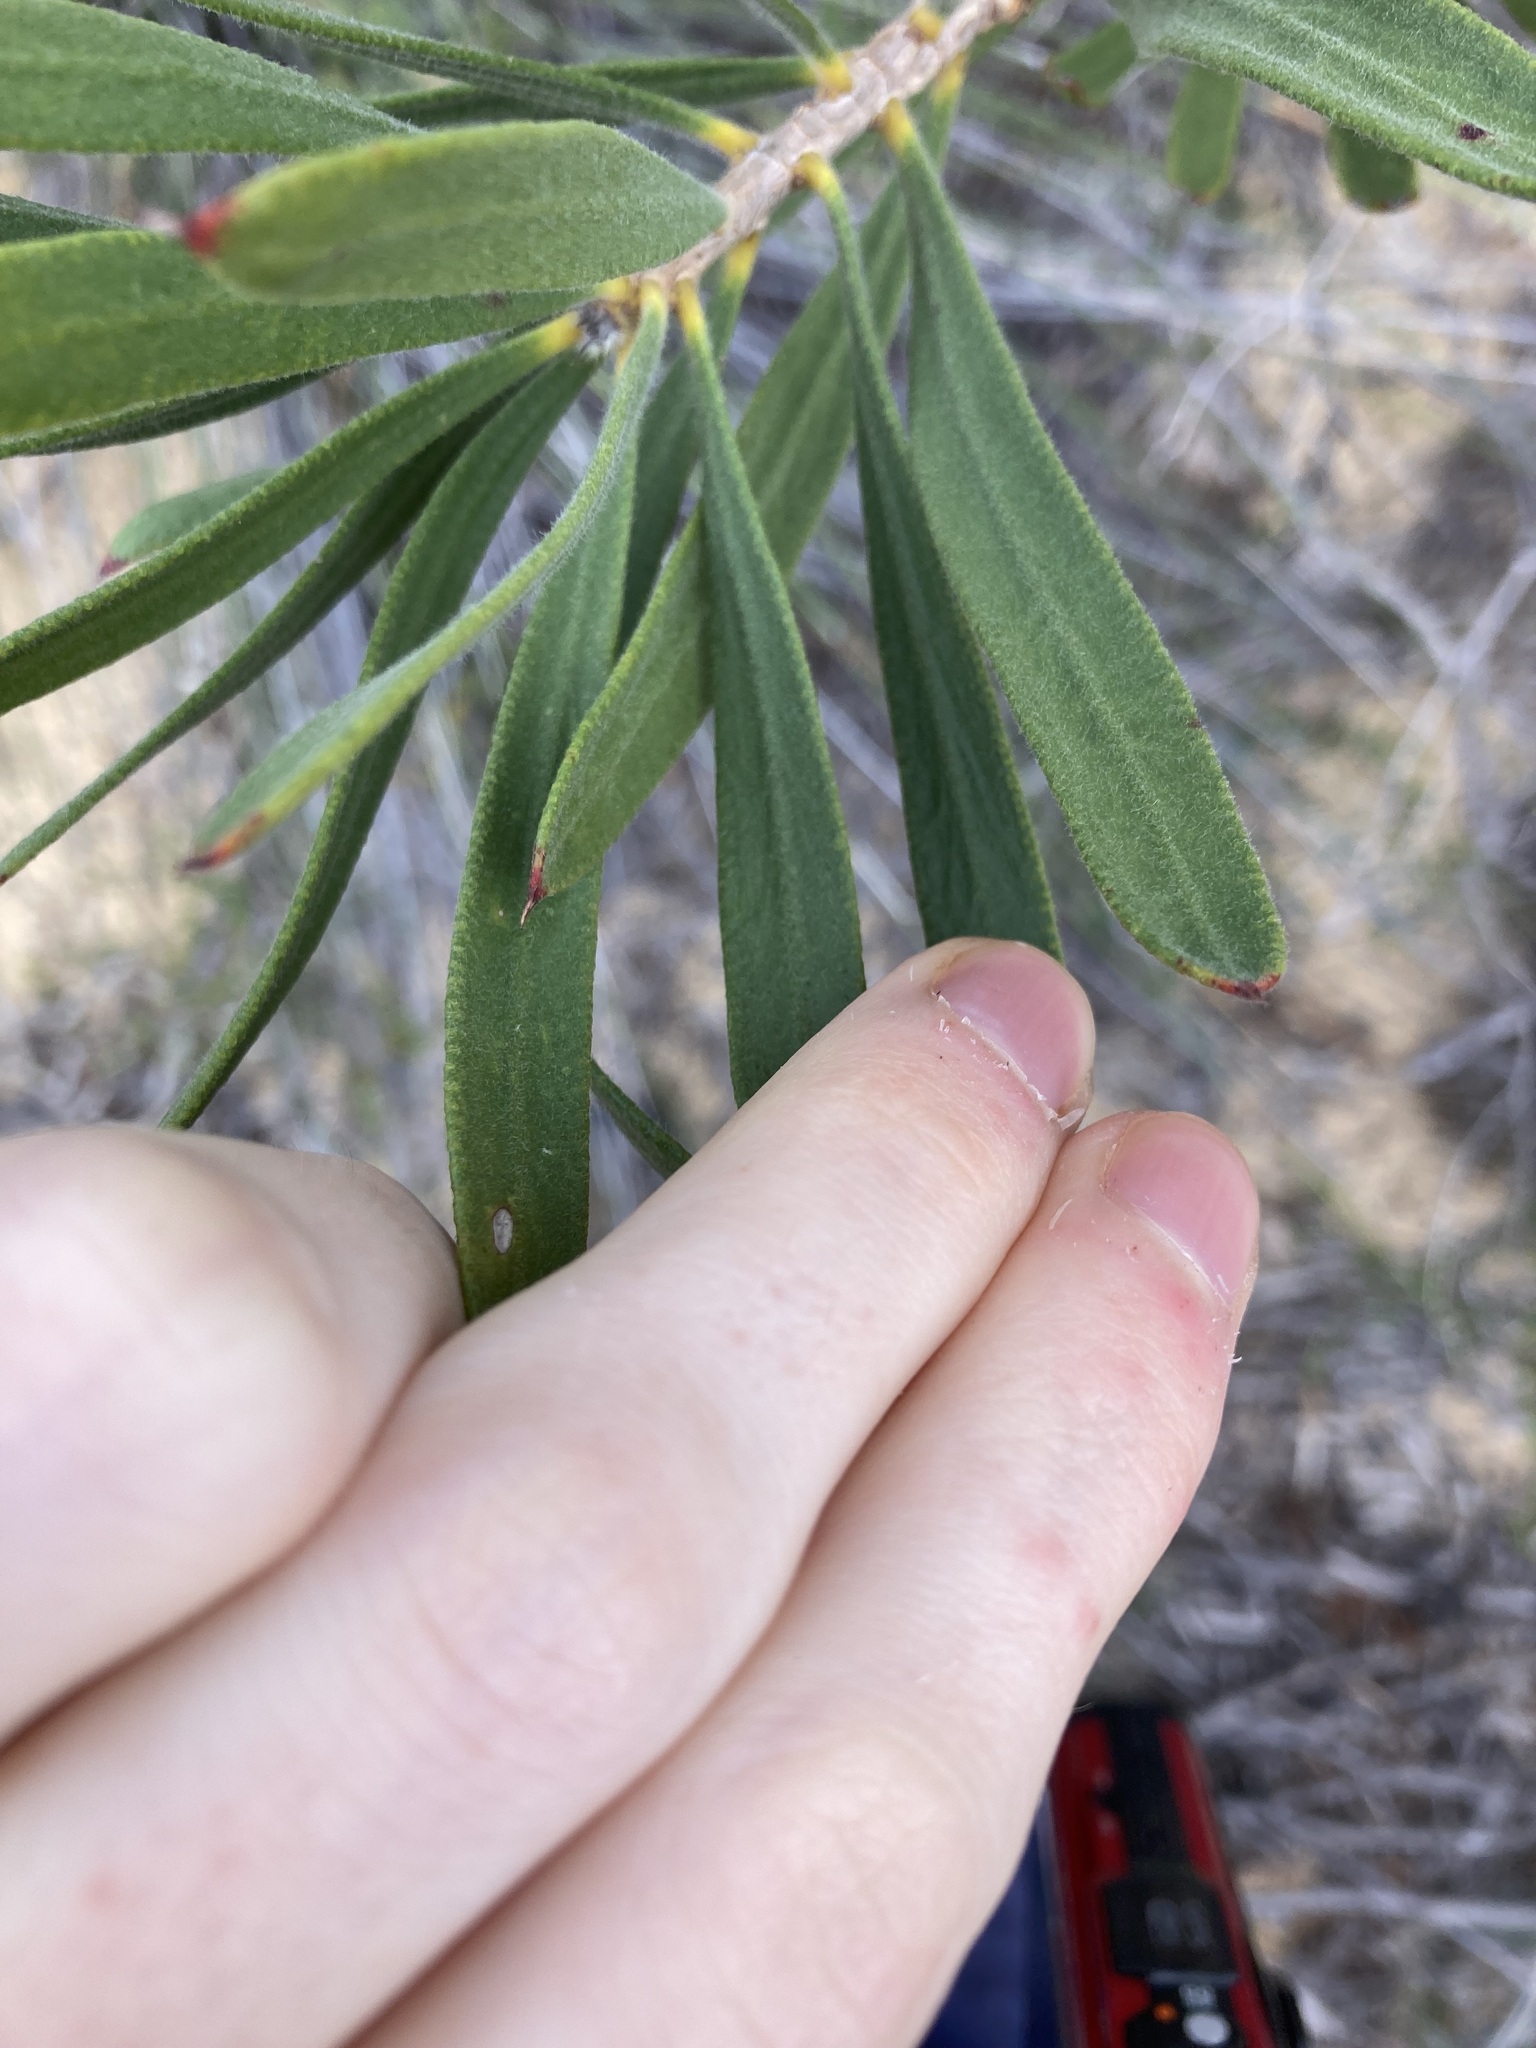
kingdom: Plantae
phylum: Tracheophyta
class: Magnoliopsida
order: Myrtales
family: Myrtaceae
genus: Melaleuca
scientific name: Melaleuca blepharosperma
